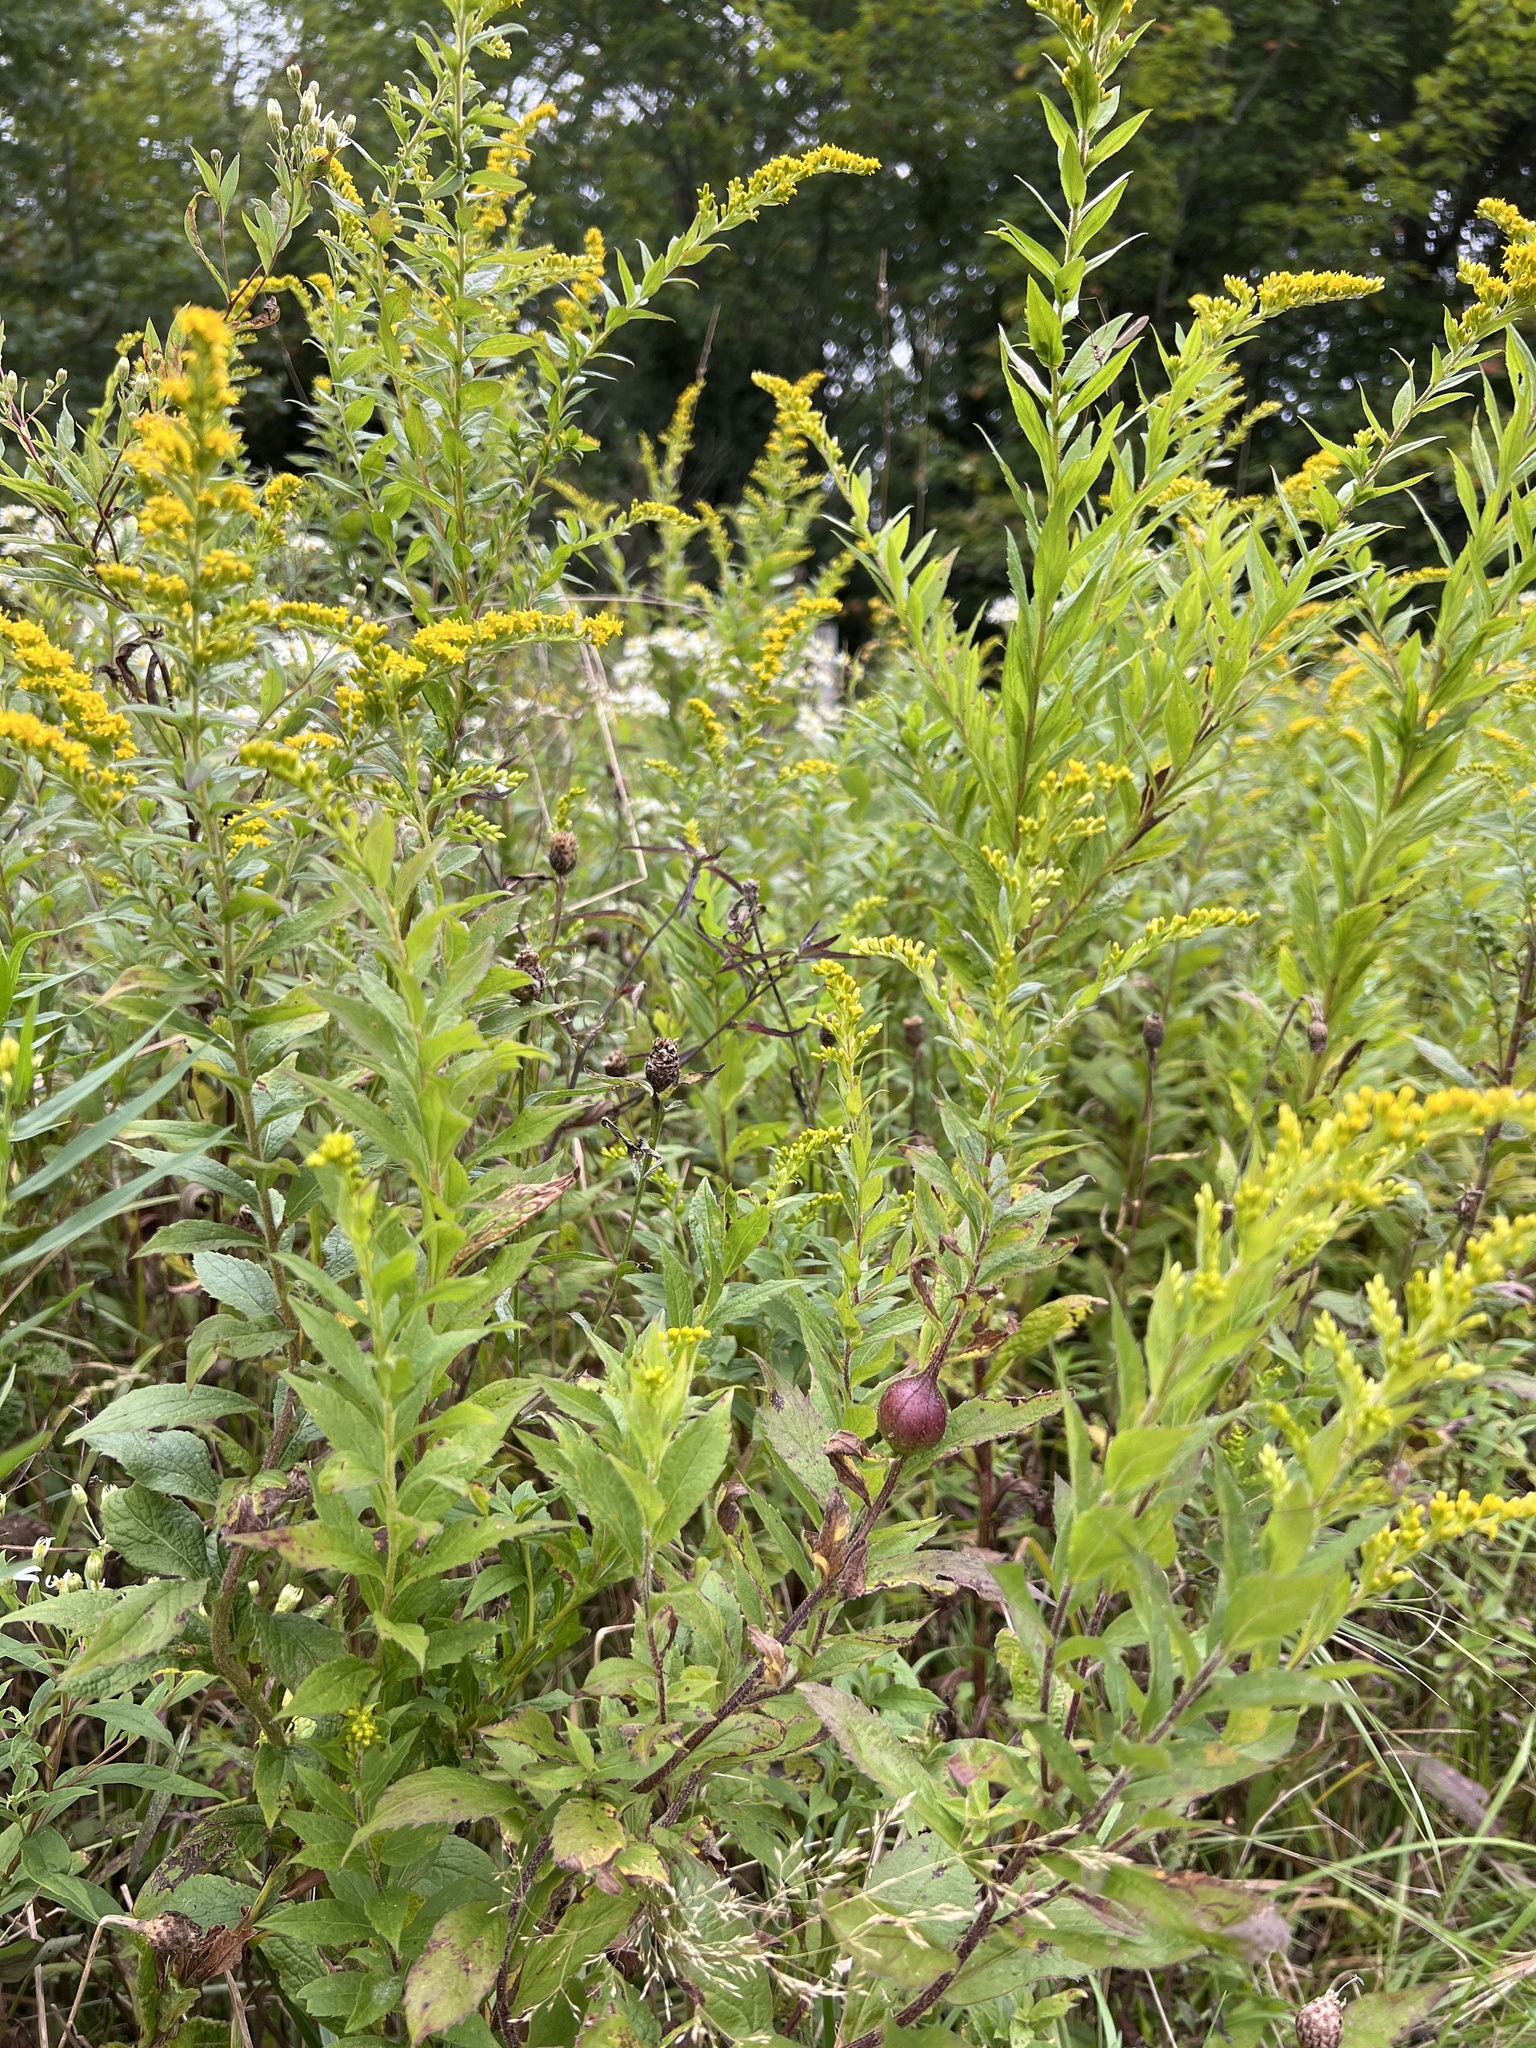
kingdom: Animalia
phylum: Arthropoda
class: Insecta
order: Diptera
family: Tephritidae
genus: Eurosta
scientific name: Eurosta solidaginis
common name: Goldenrod gall fly
